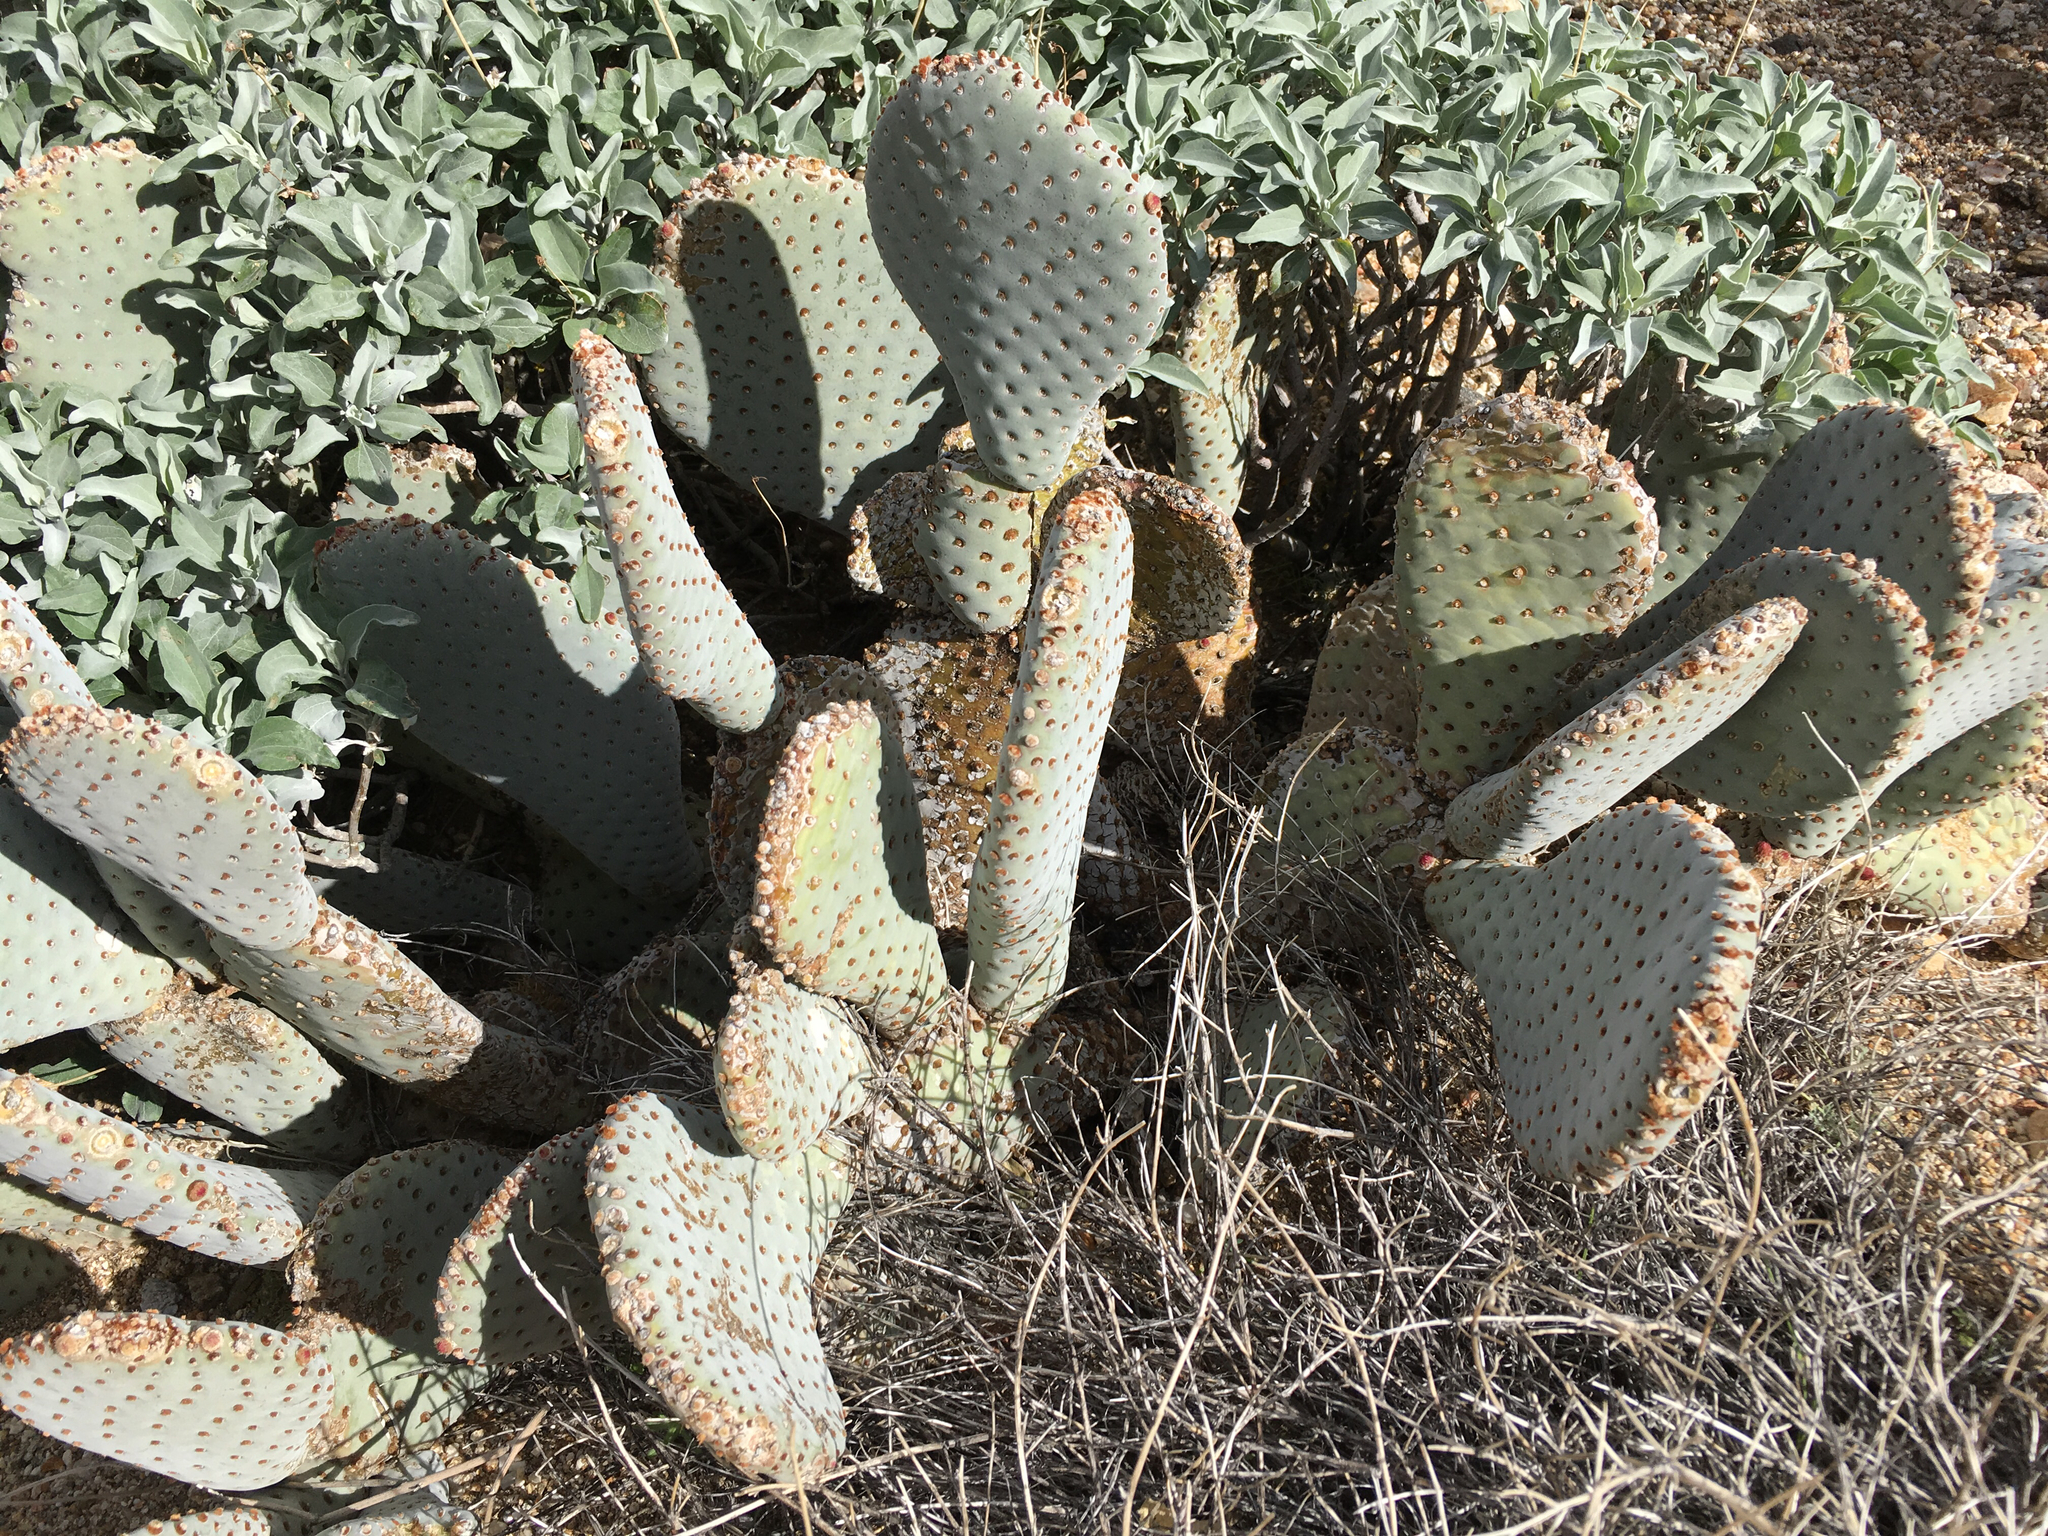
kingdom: Plantae
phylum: Tracheophyta
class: Magnoliopsida
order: Caryophyllales
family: Cactaceae
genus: Opuntia
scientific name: Opuntia basilaris
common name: Beavertail prickly-pear
